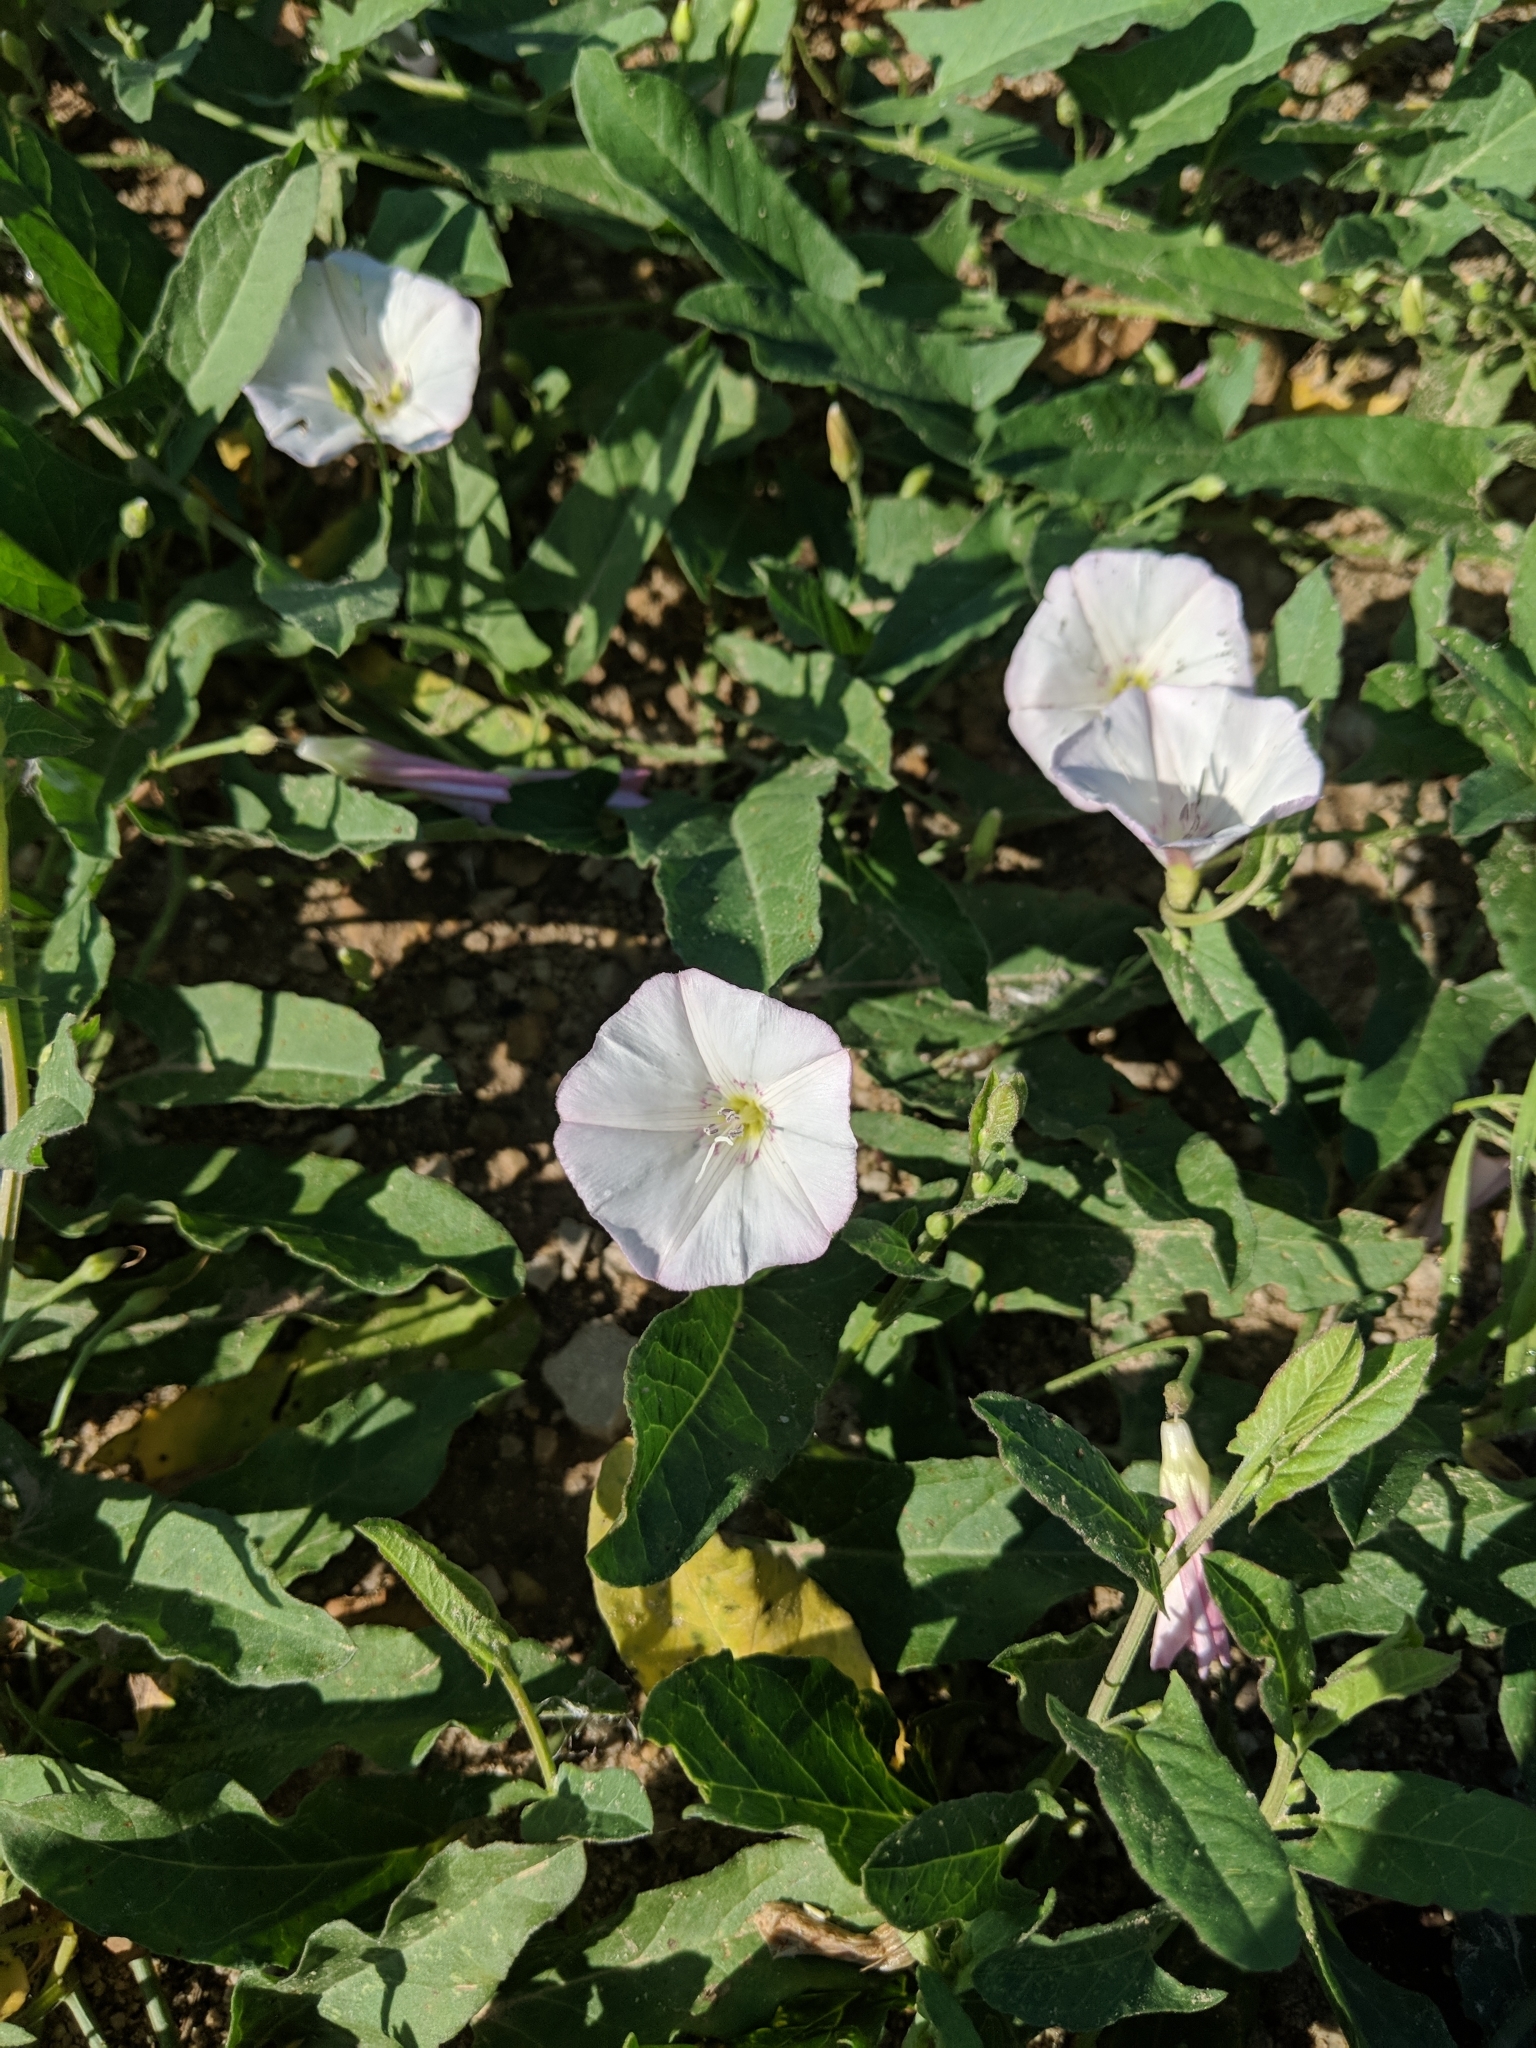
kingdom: Plantae
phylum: Tracheophyta
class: Magnoliopsida
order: Solanales
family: Convolvulaceae
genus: Convolvulus
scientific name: Convolvulus arvensis
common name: Field bindweed
